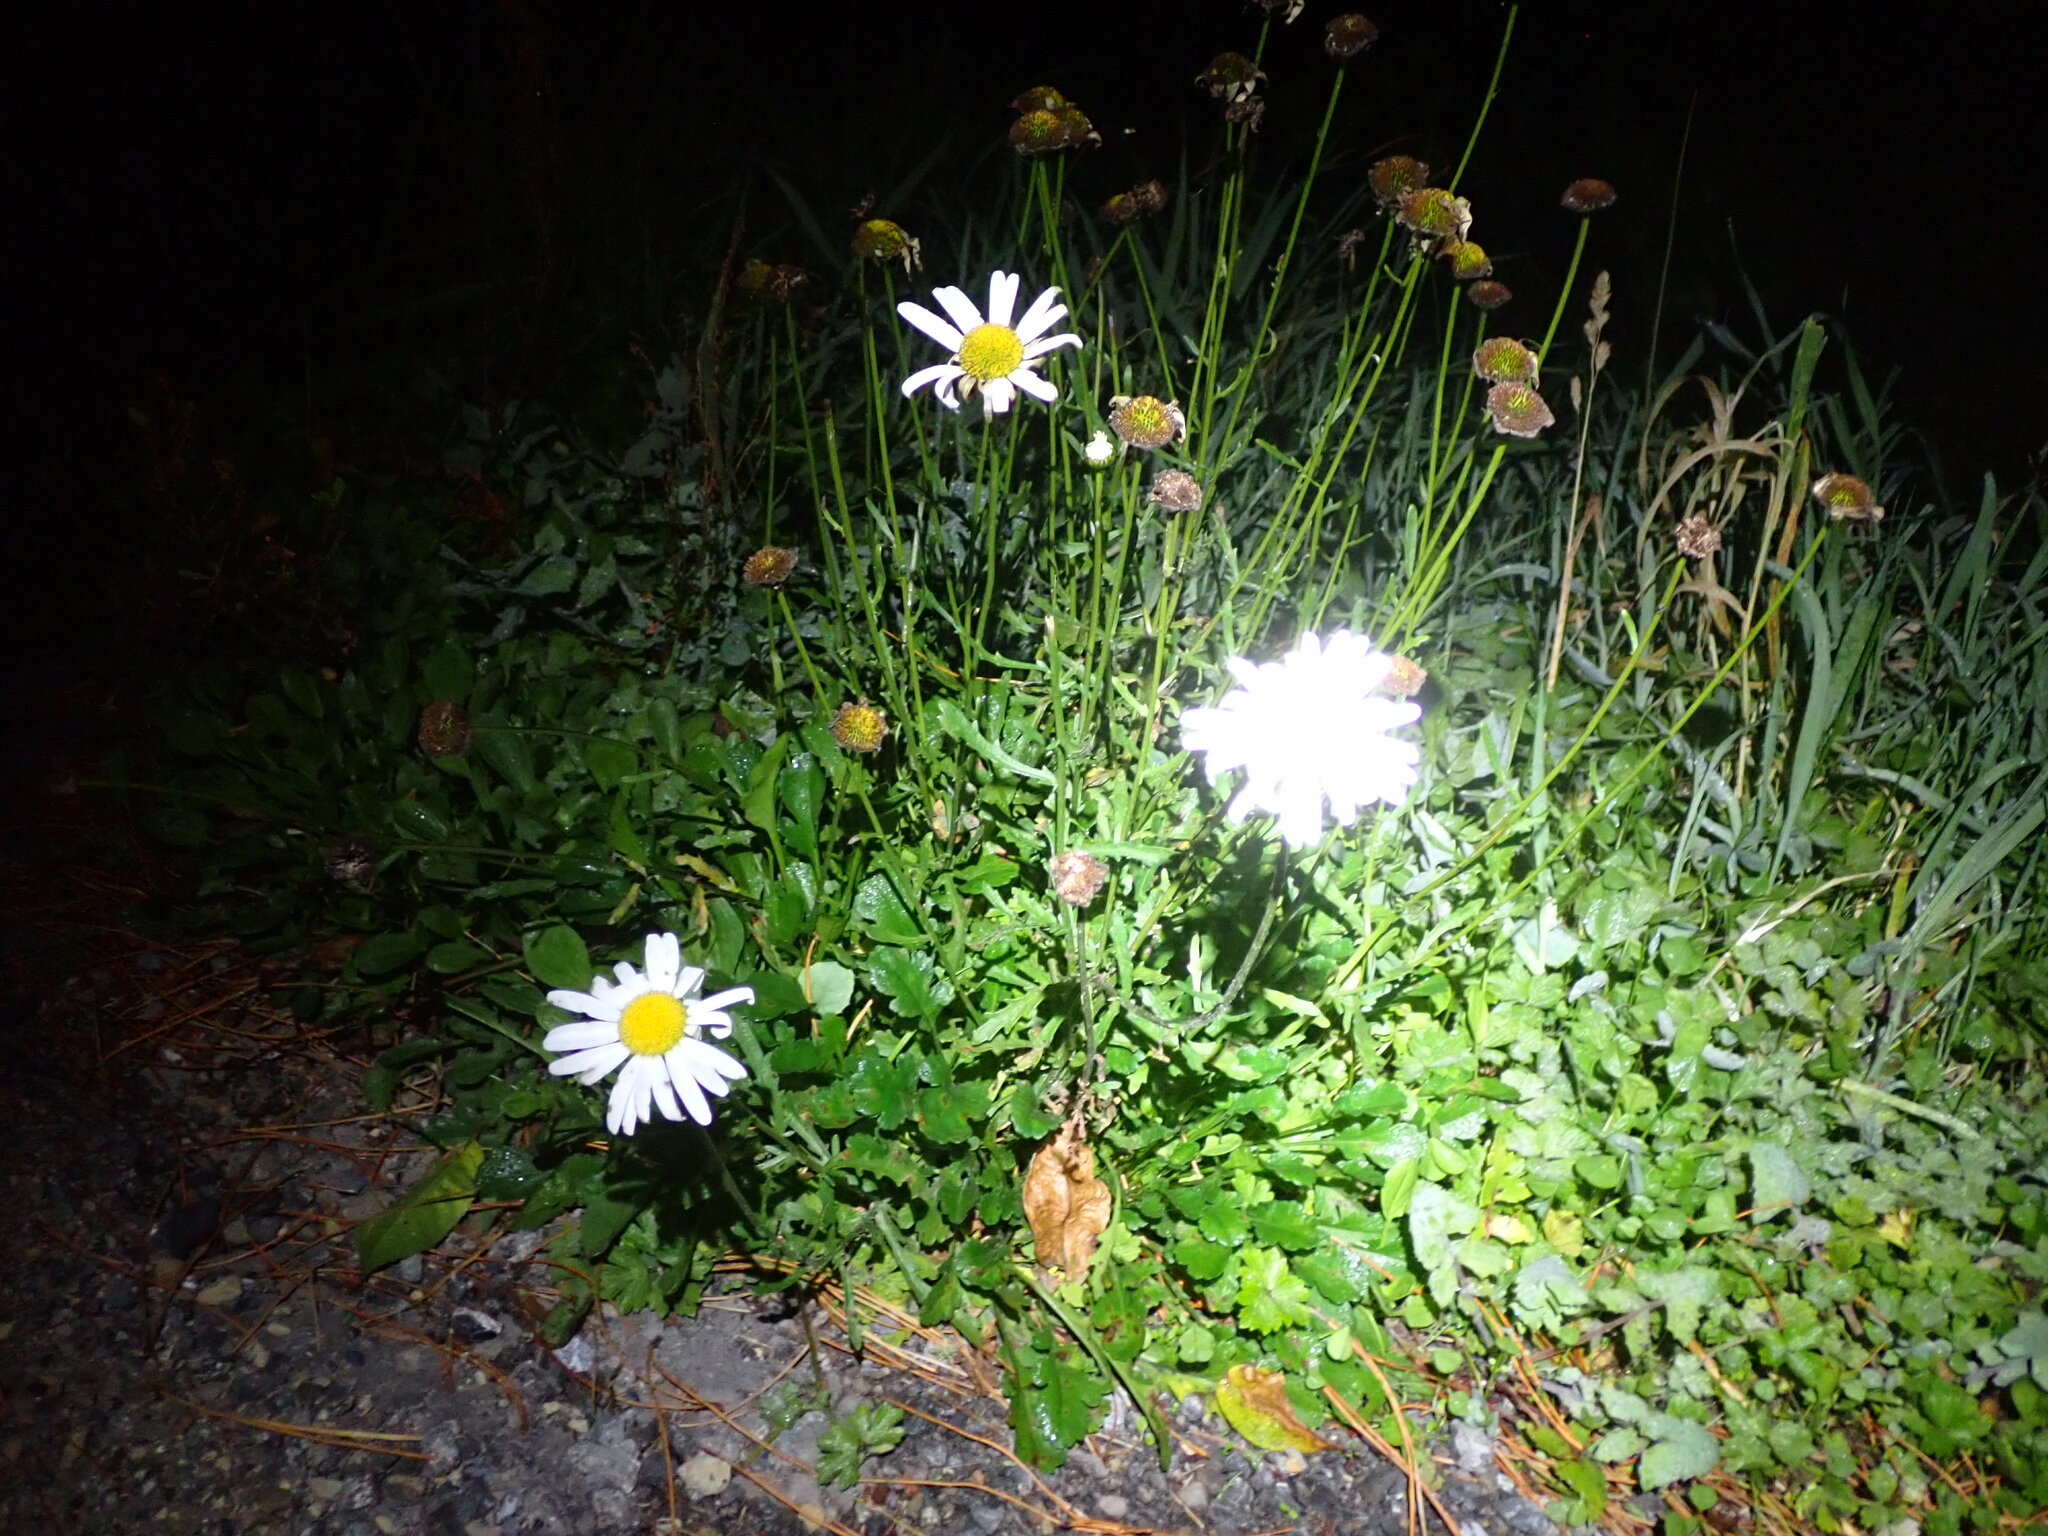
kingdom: Plantae
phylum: Tracheophyta
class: Magnoliopsida
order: Asterales
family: Asteraceae
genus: Leucanthemum
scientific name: Leucanthemum vulgare
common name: Oxeye daisy
